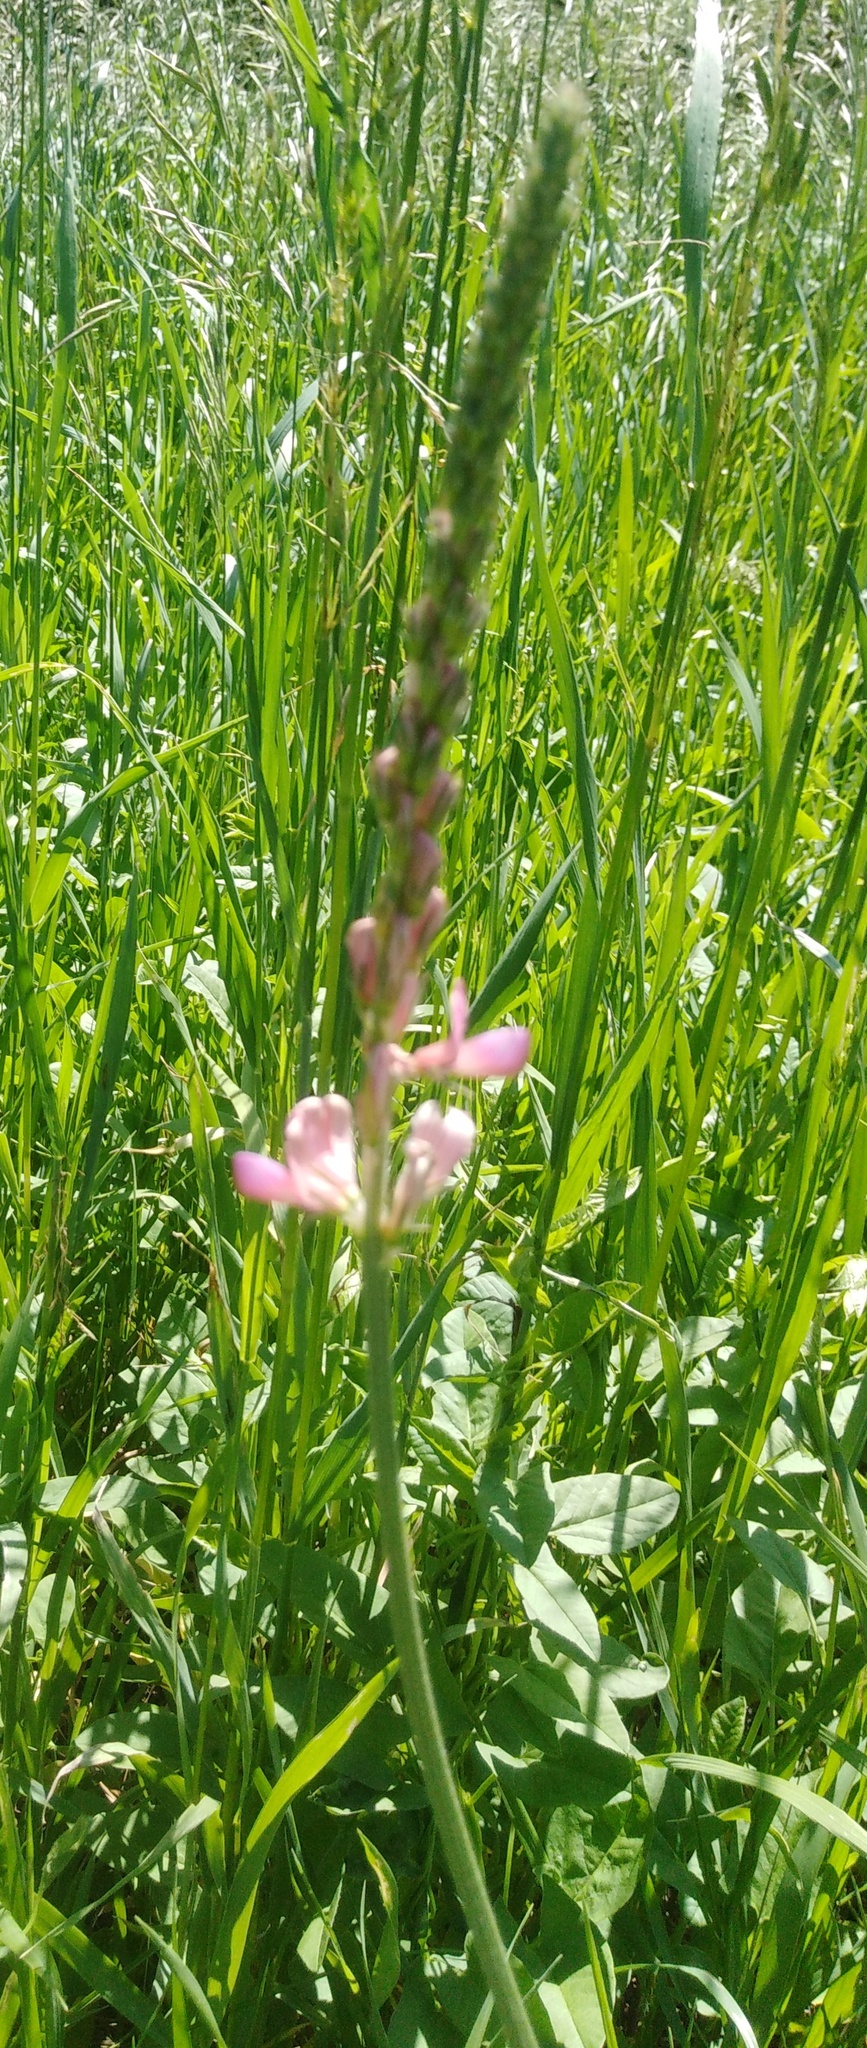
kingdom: Plantae
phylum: Tracheophyta
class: Magnoliopsida
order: Fabales
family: Fabaceae
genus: Onobrychis
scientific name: Onobrychis viciifolia
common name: Sainfoin
